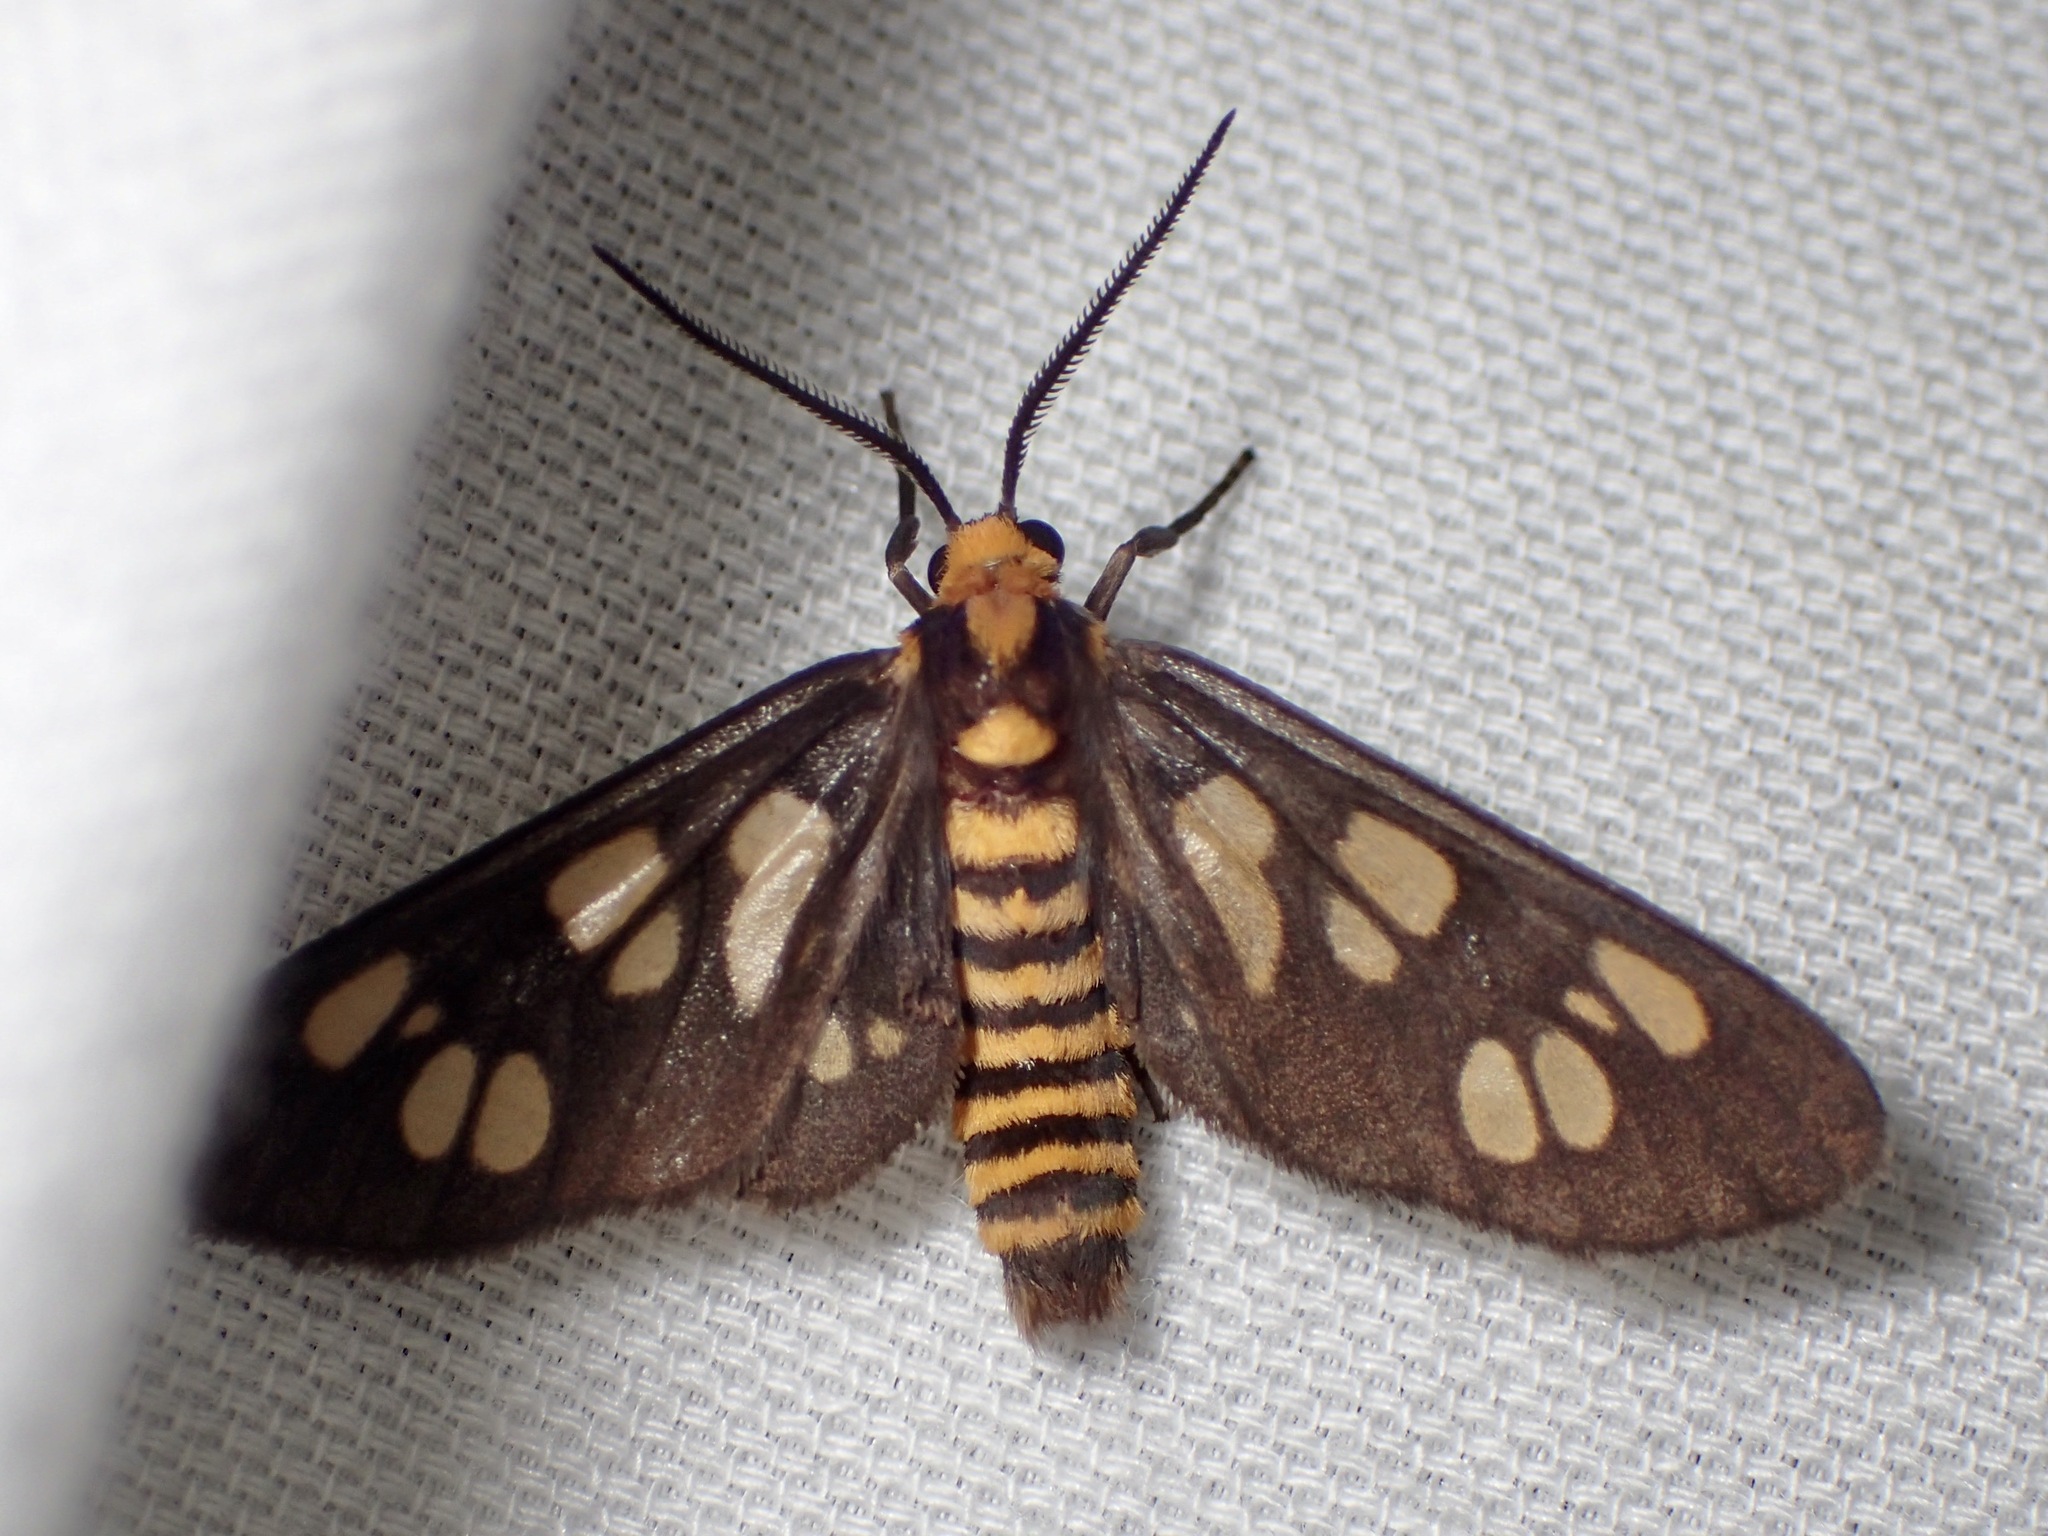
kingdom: Animalia
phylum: Arthropoda
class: Insecta
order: Lepidoptera
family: Erebidae
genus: Eressa
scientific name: Eressa strepsimeris
